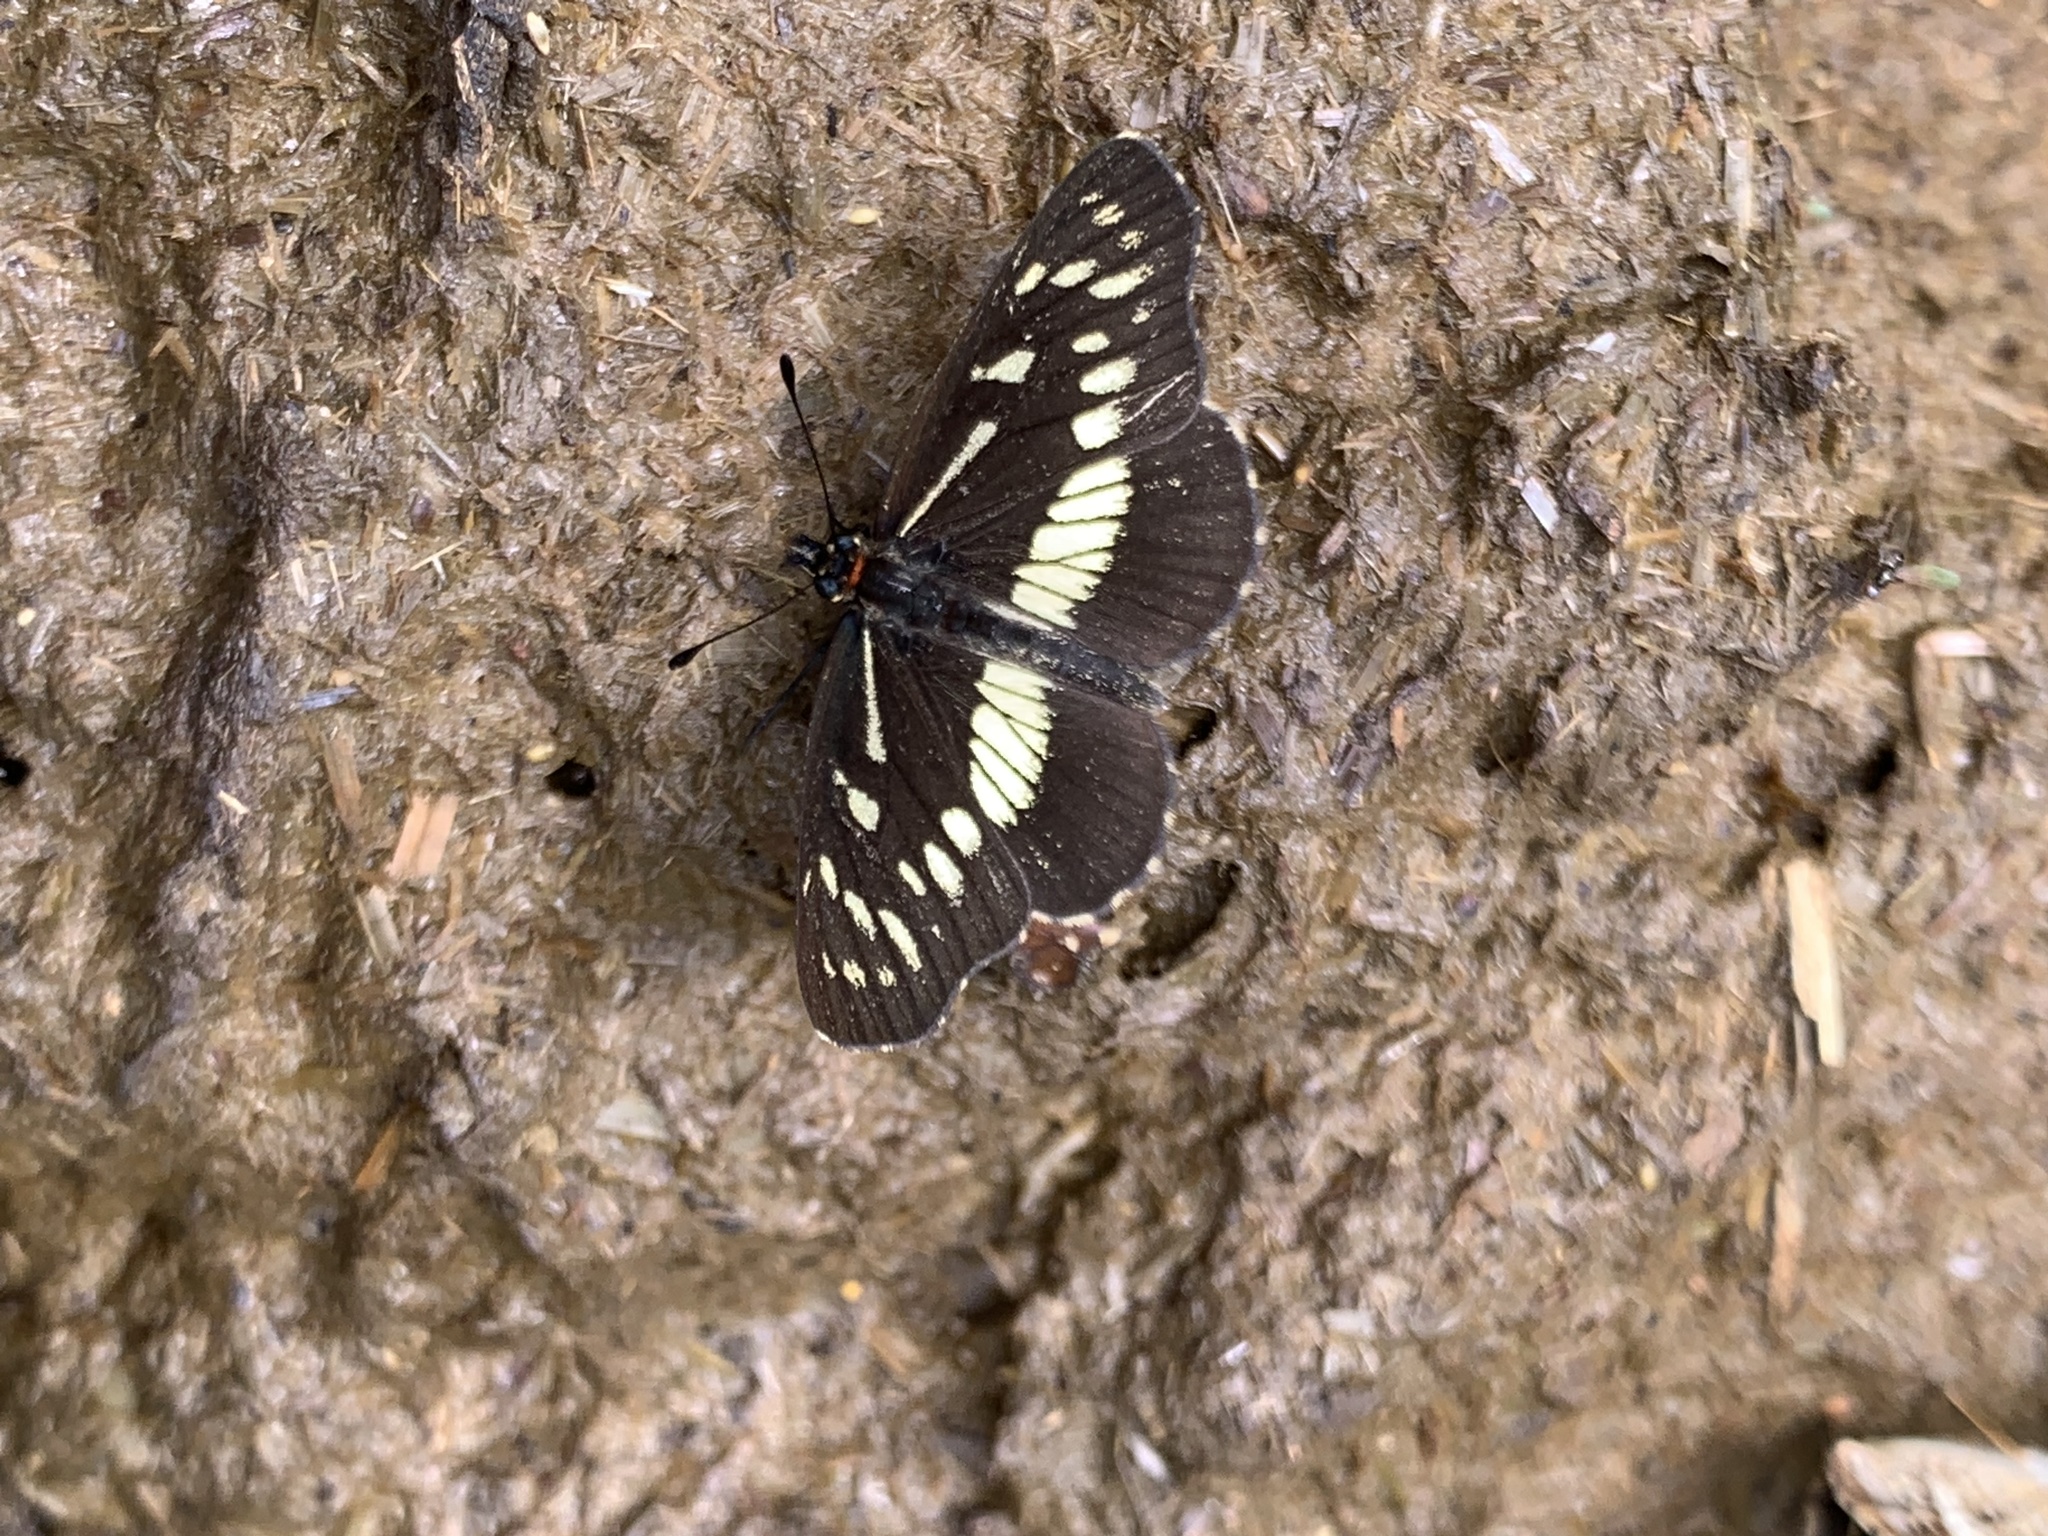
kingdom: Animalia
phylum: Arthropoda
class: Insecta
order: Lepidoptera
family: Nymphalidae
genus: Gnathotriche
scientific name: Gnathotriche exclamationis
